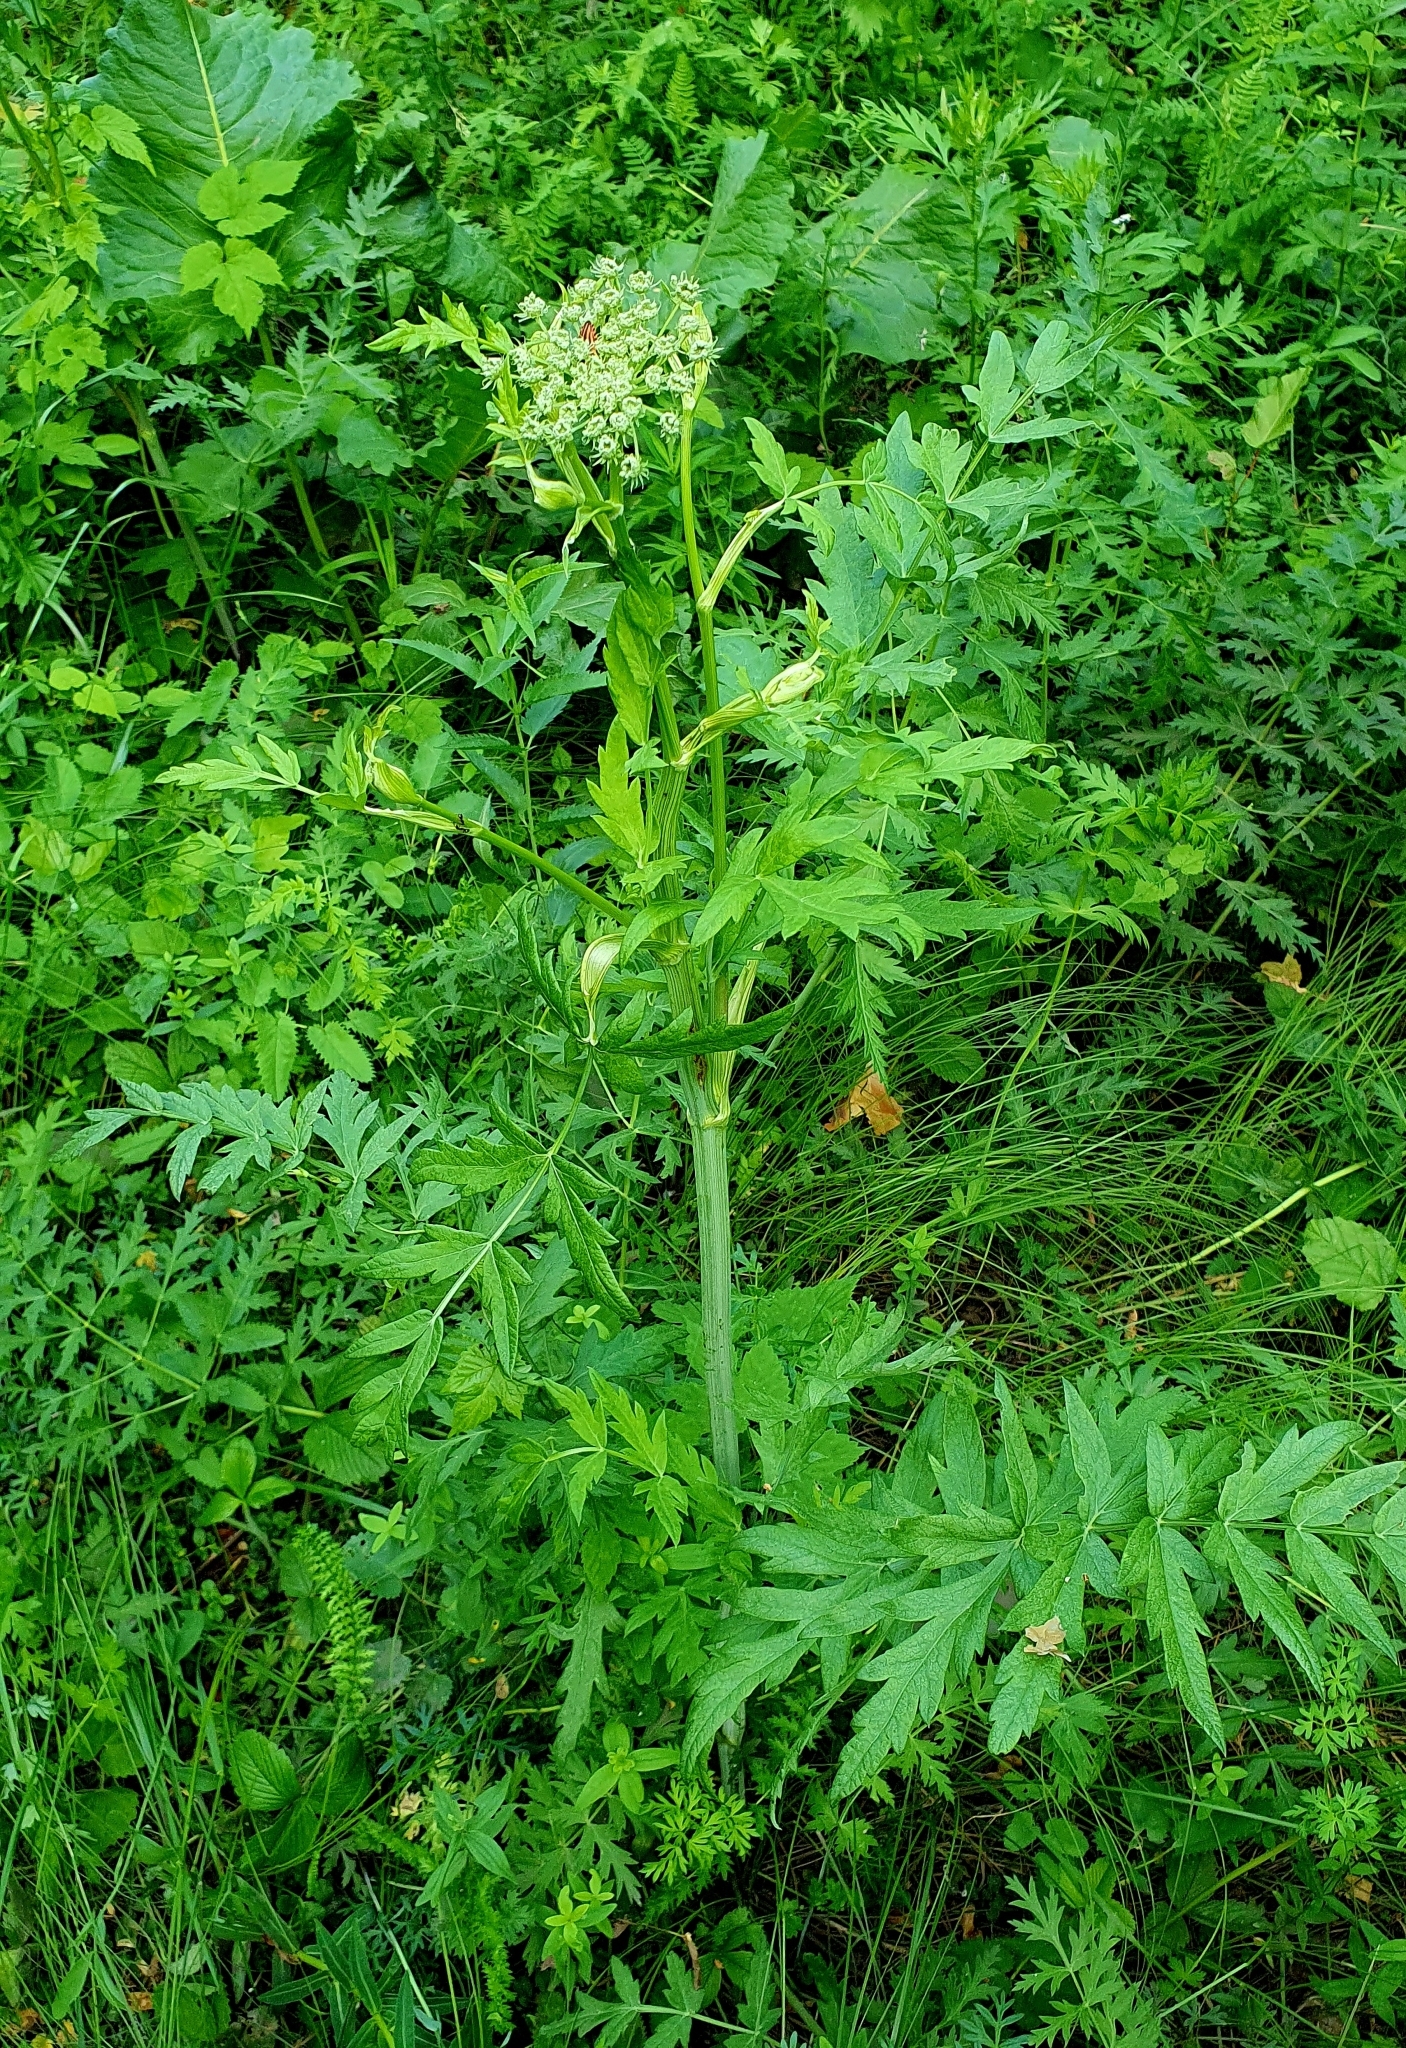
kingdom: Plantae
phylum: Tracheophyta
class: Magnoliopsida
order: Apiales
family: Apiaceae
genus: Seseli
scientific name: Seseli libanotis
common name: Mooncarrot
